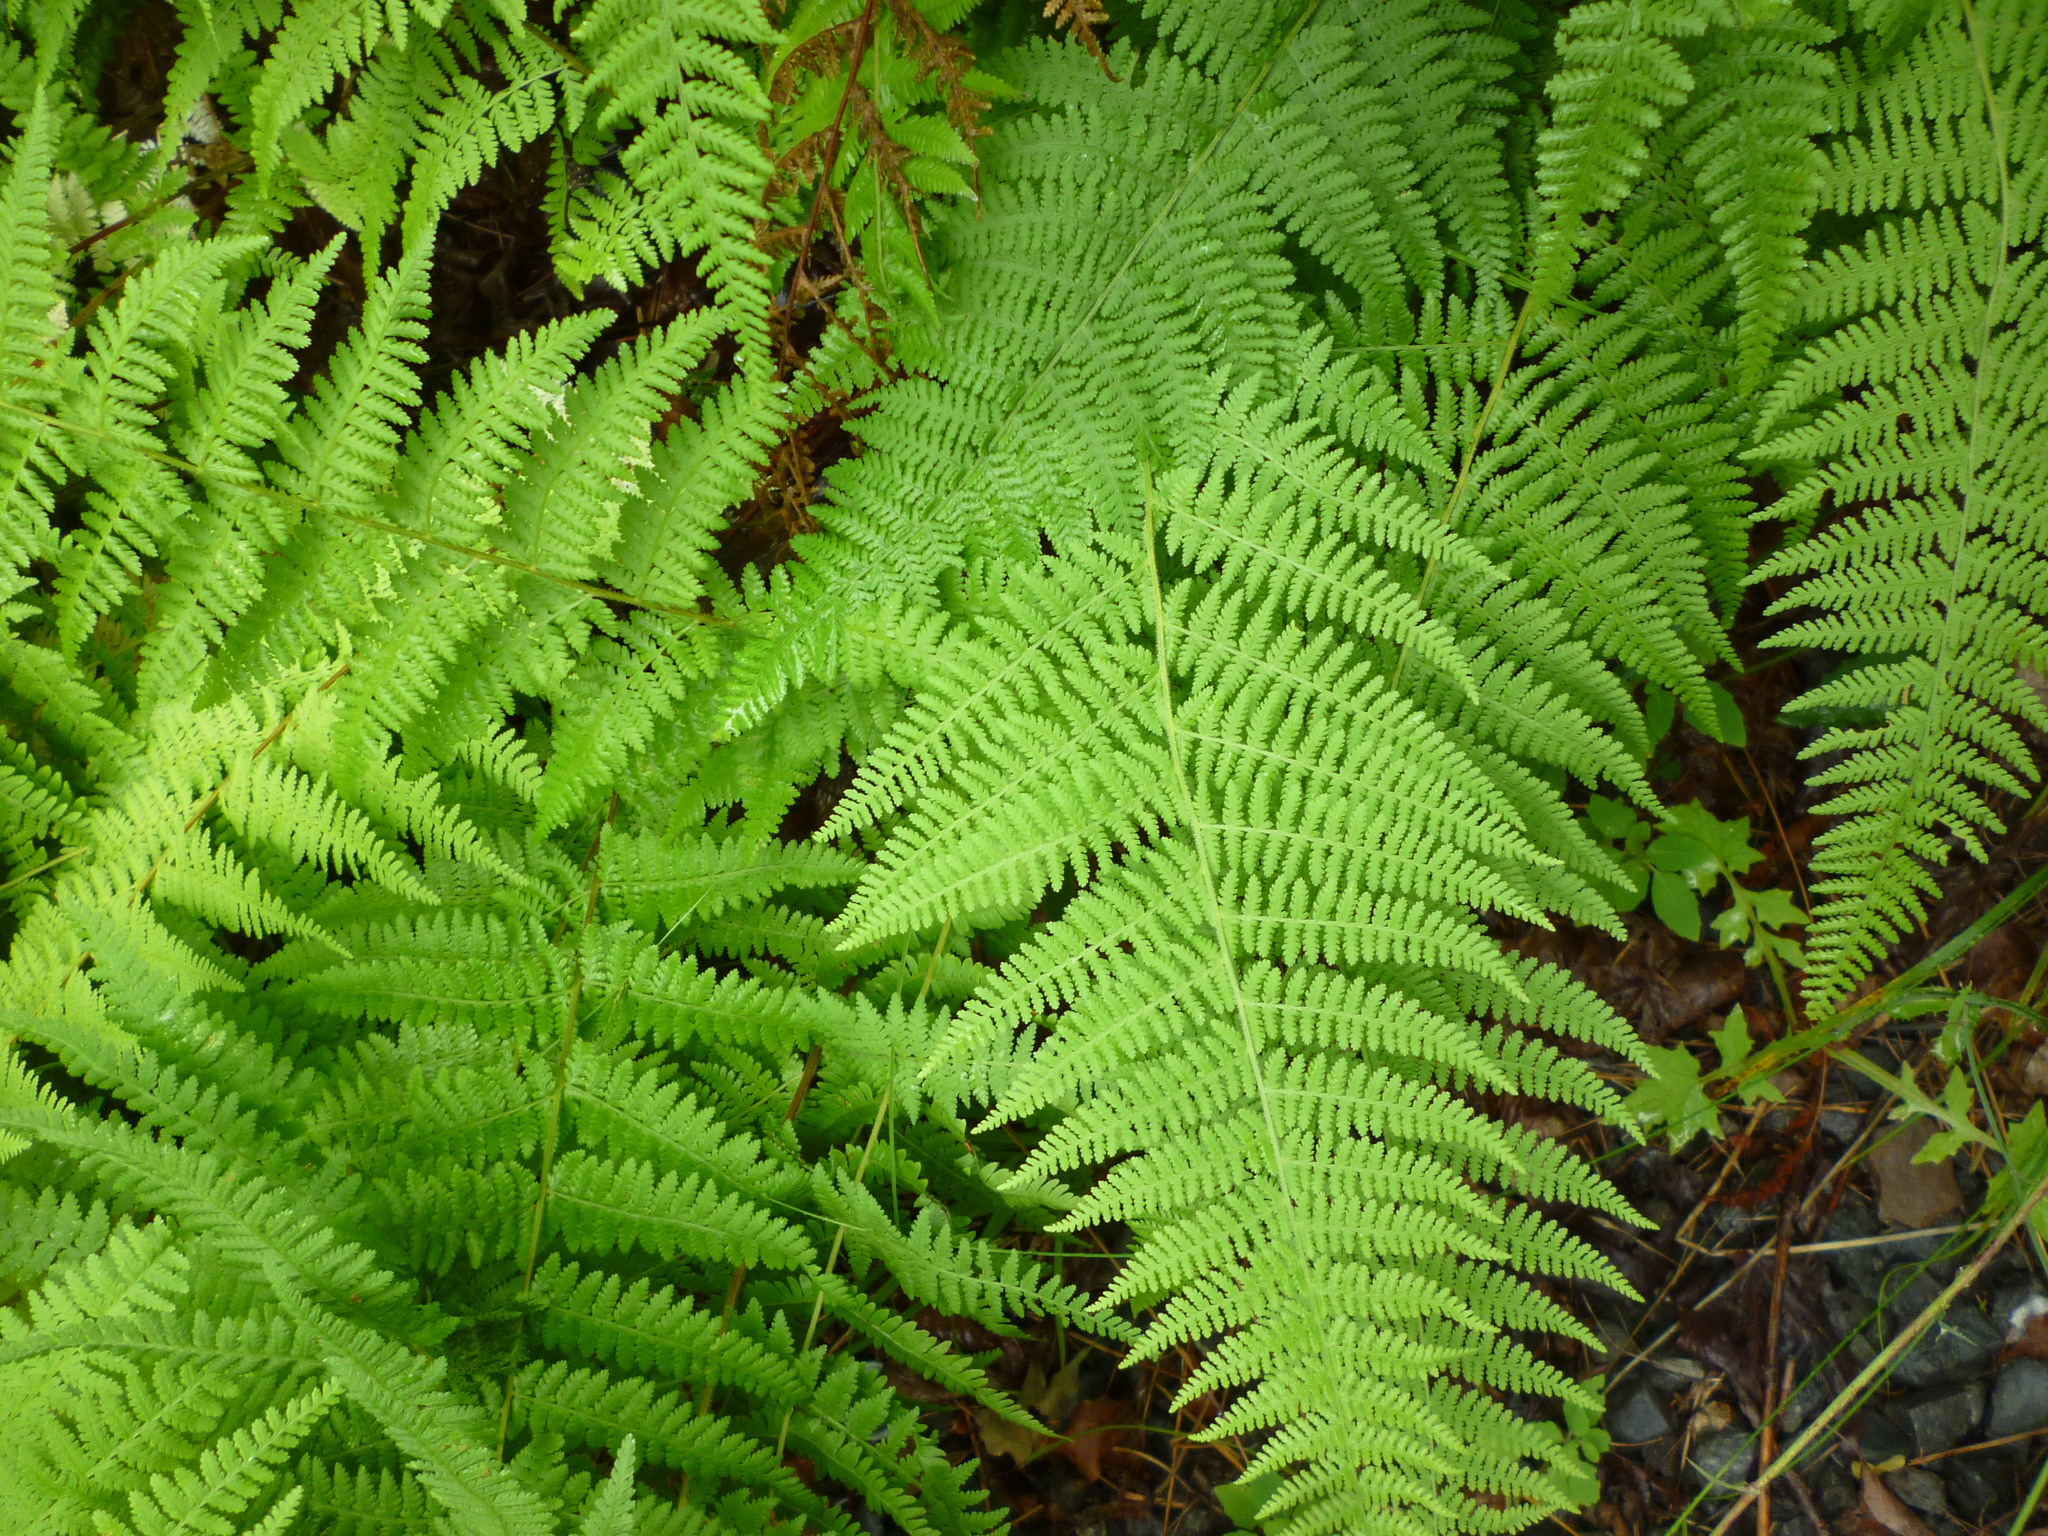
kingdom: Plantae
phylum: Tracheophyta
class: Polypodiopsida
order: Polypodiales
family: Dennstaedtiaceae
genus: Sitobolium
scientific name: Sitobolium punctilobum
